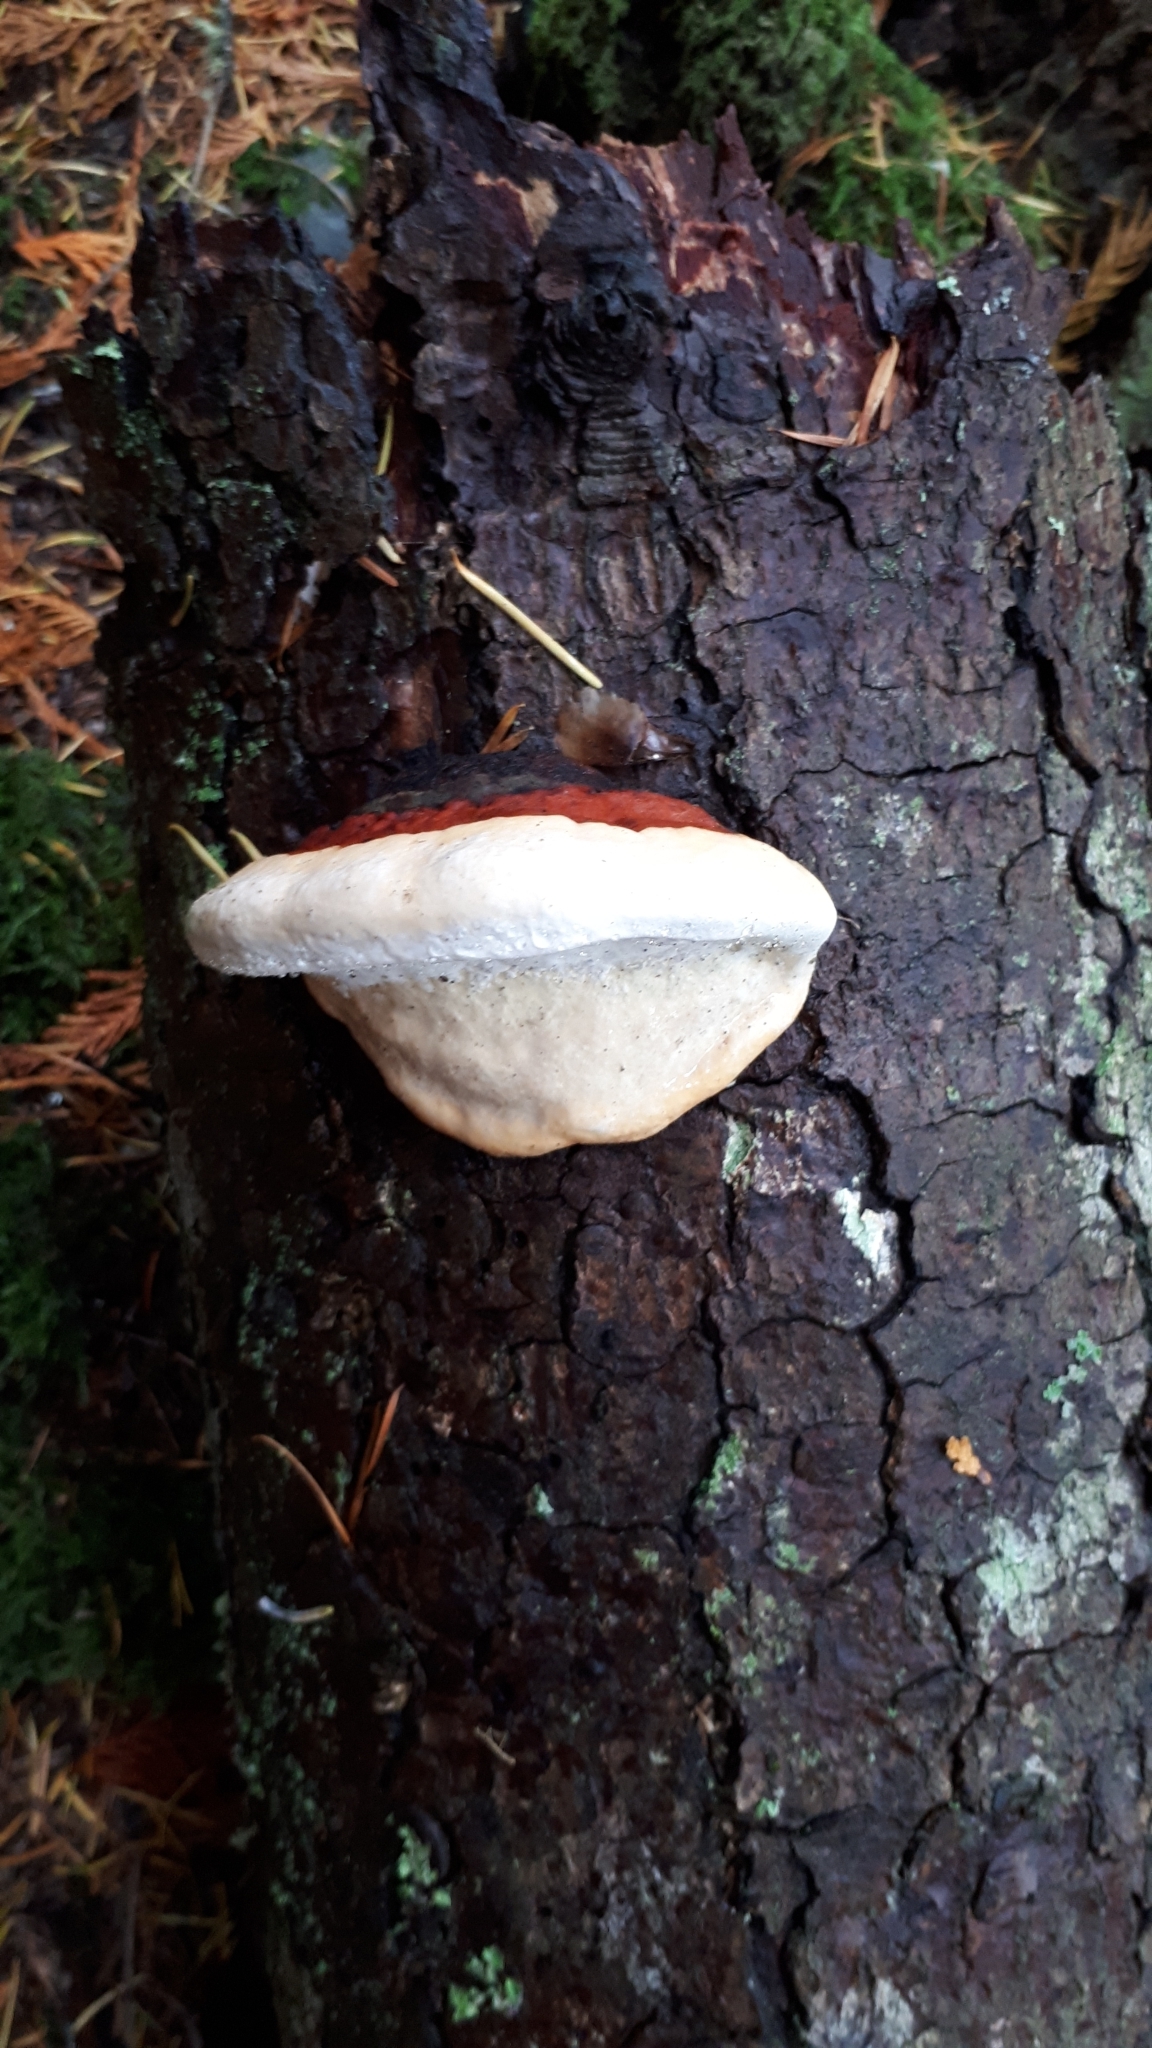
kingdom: Fungi
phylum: Basidiomycota
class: Agaricomycetes
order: Polyporales
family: Fomitopsidaceae
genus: Fomitopsis
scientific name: Fomitopsis mounceae
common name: Northern red belt
